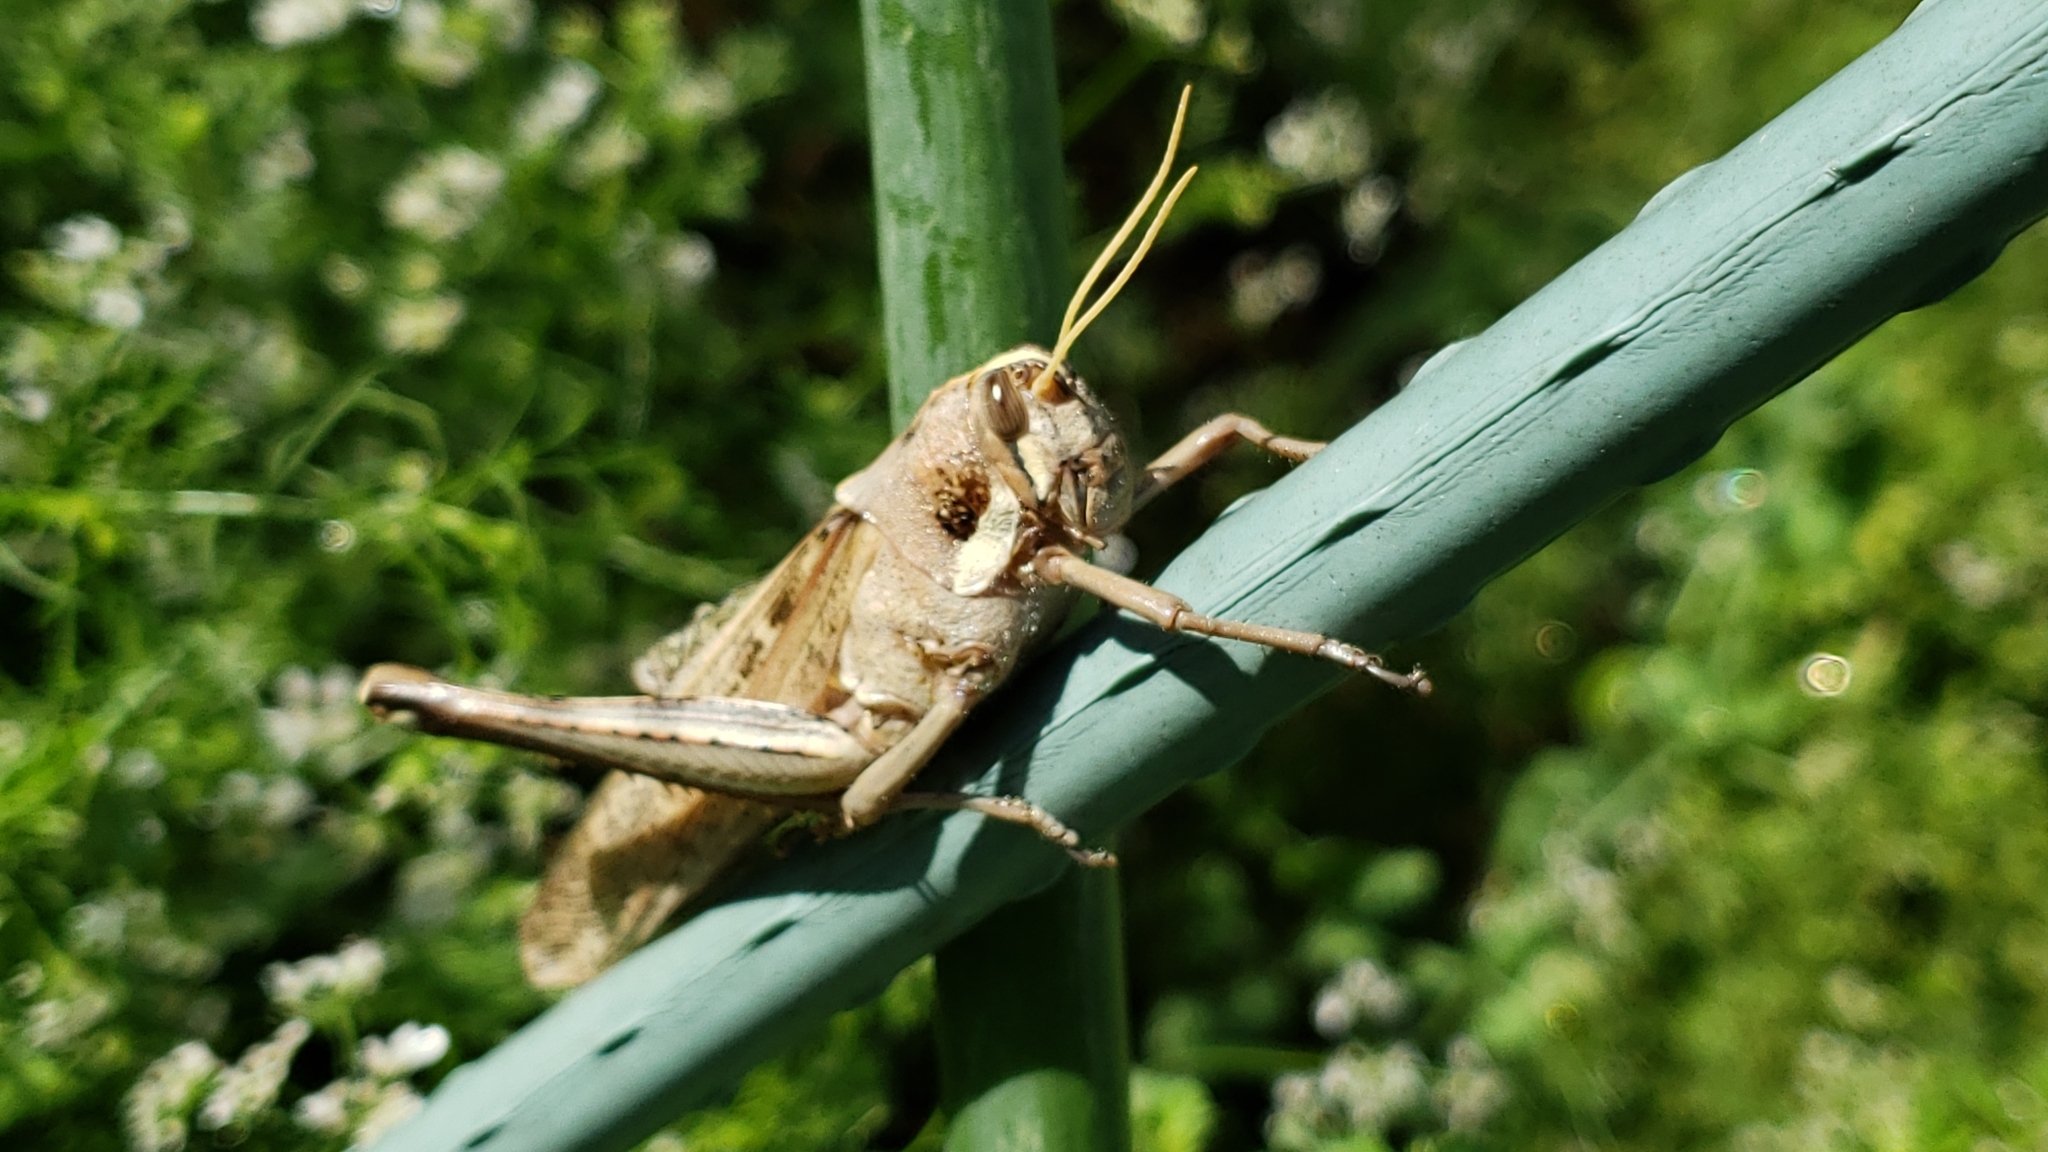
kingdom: Animalia
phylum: Arthropoda
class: Insecta
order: Orthoptera
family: Acrididae
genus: Schistocerca
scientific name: Schistocerca nitens
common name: Vagrant grasshopper
